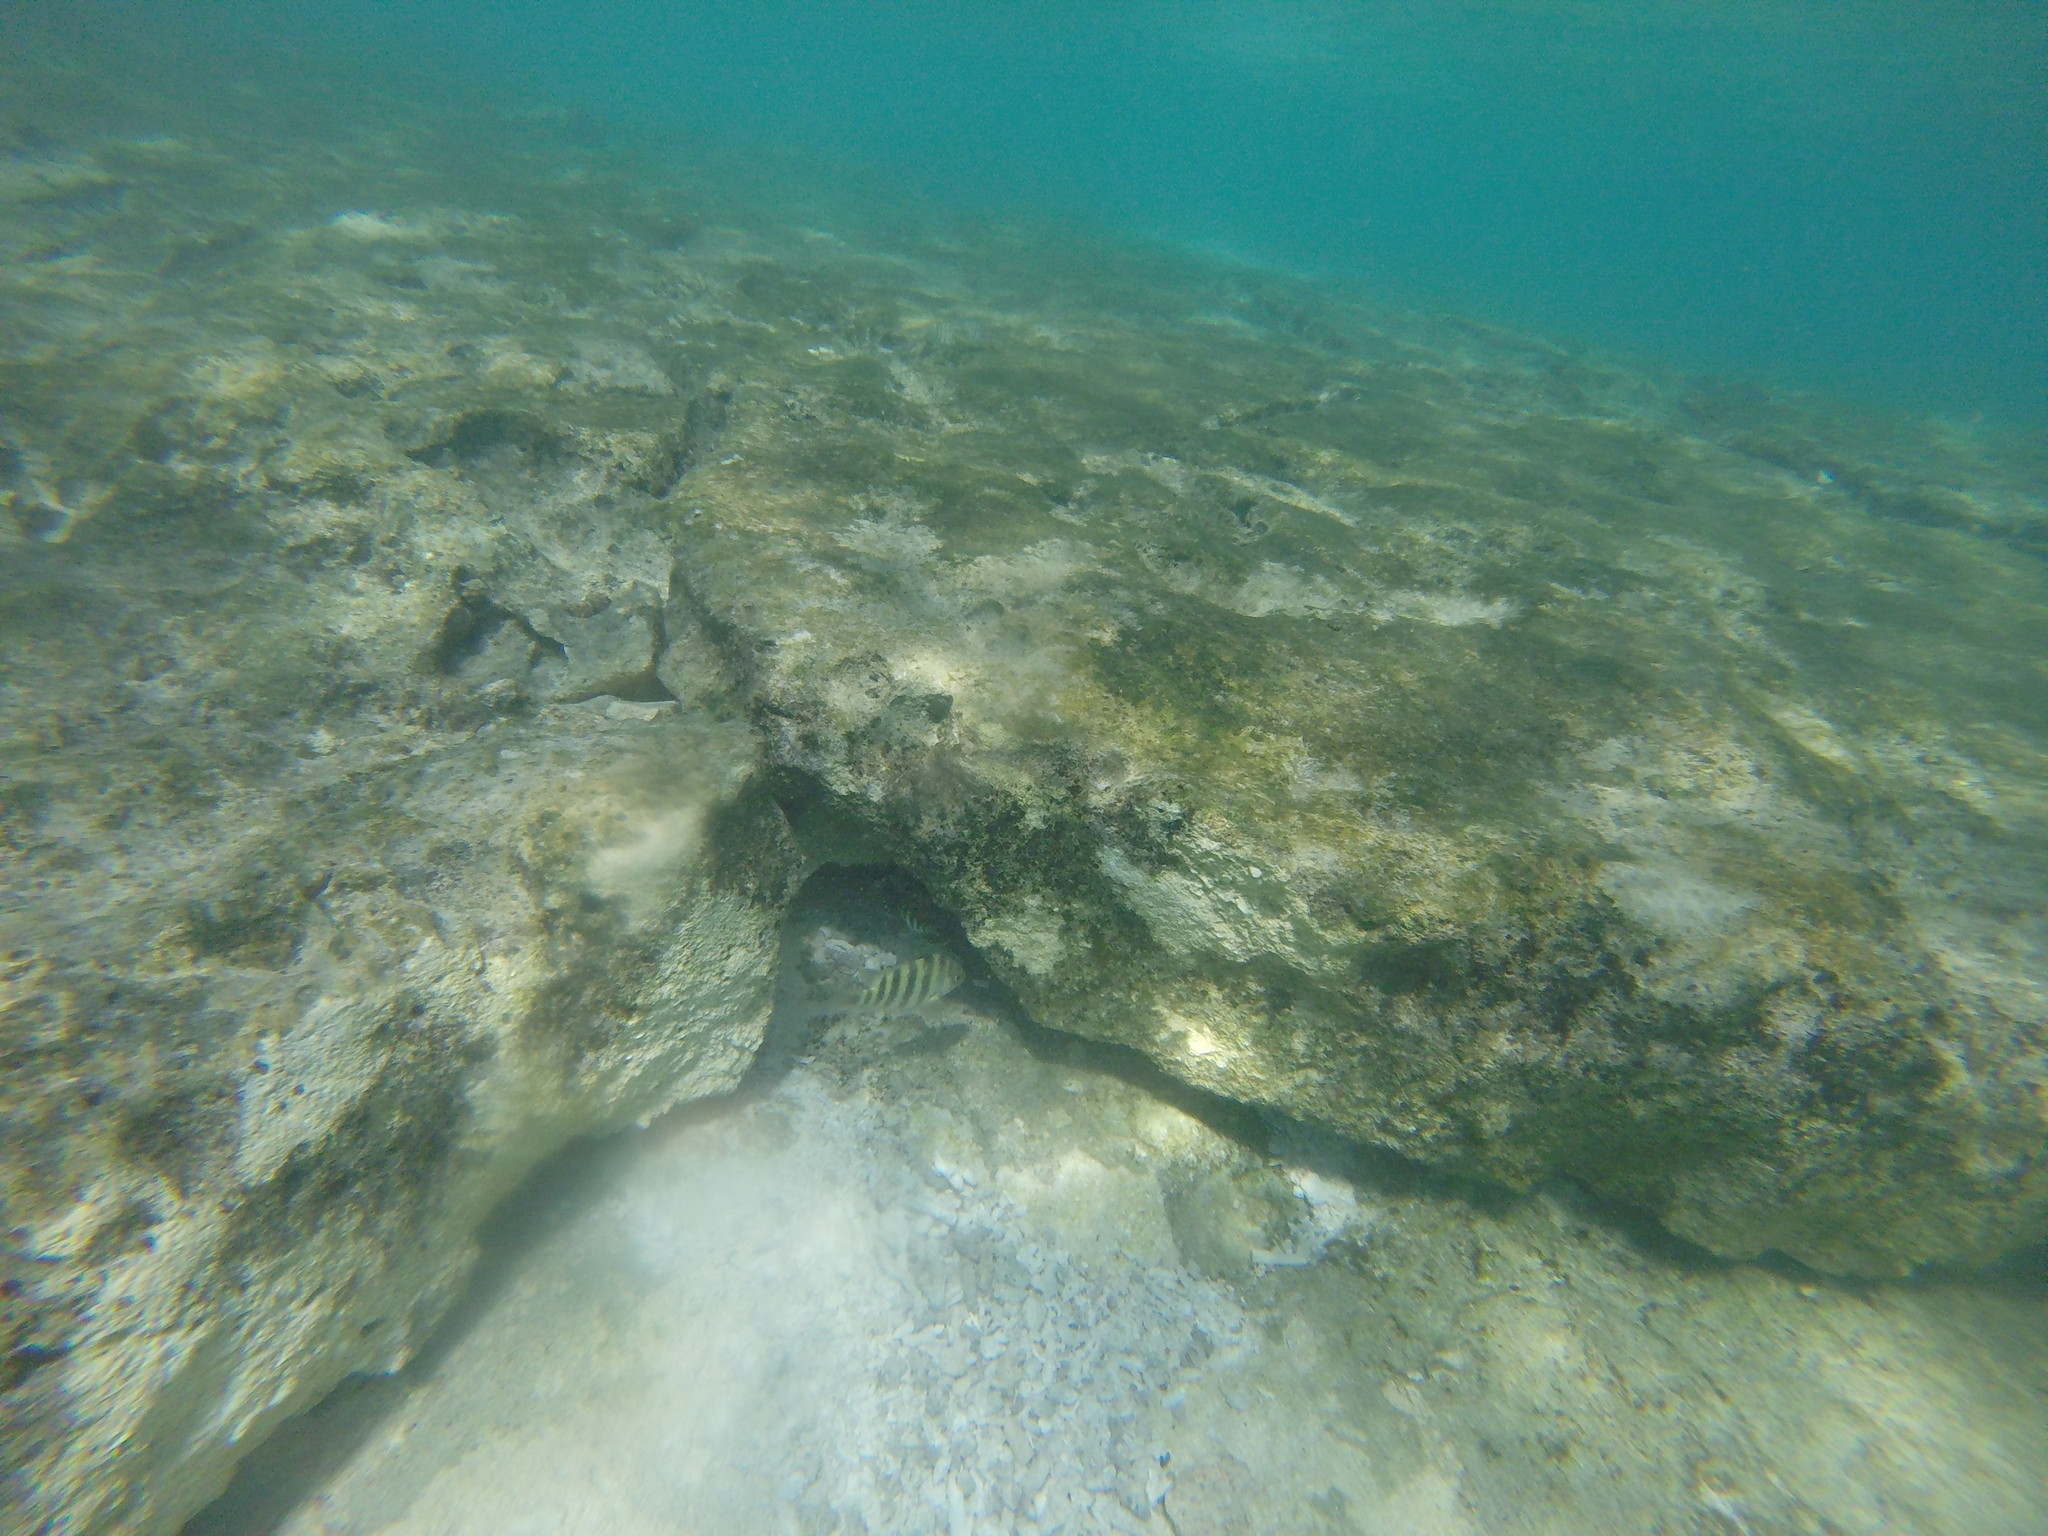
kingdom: Animalia
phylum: Chordata
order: Perciformes
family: Pomacentridae
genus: Abudefduf
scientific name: Abudefduf septemfasciatus
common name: Banded sergeant
